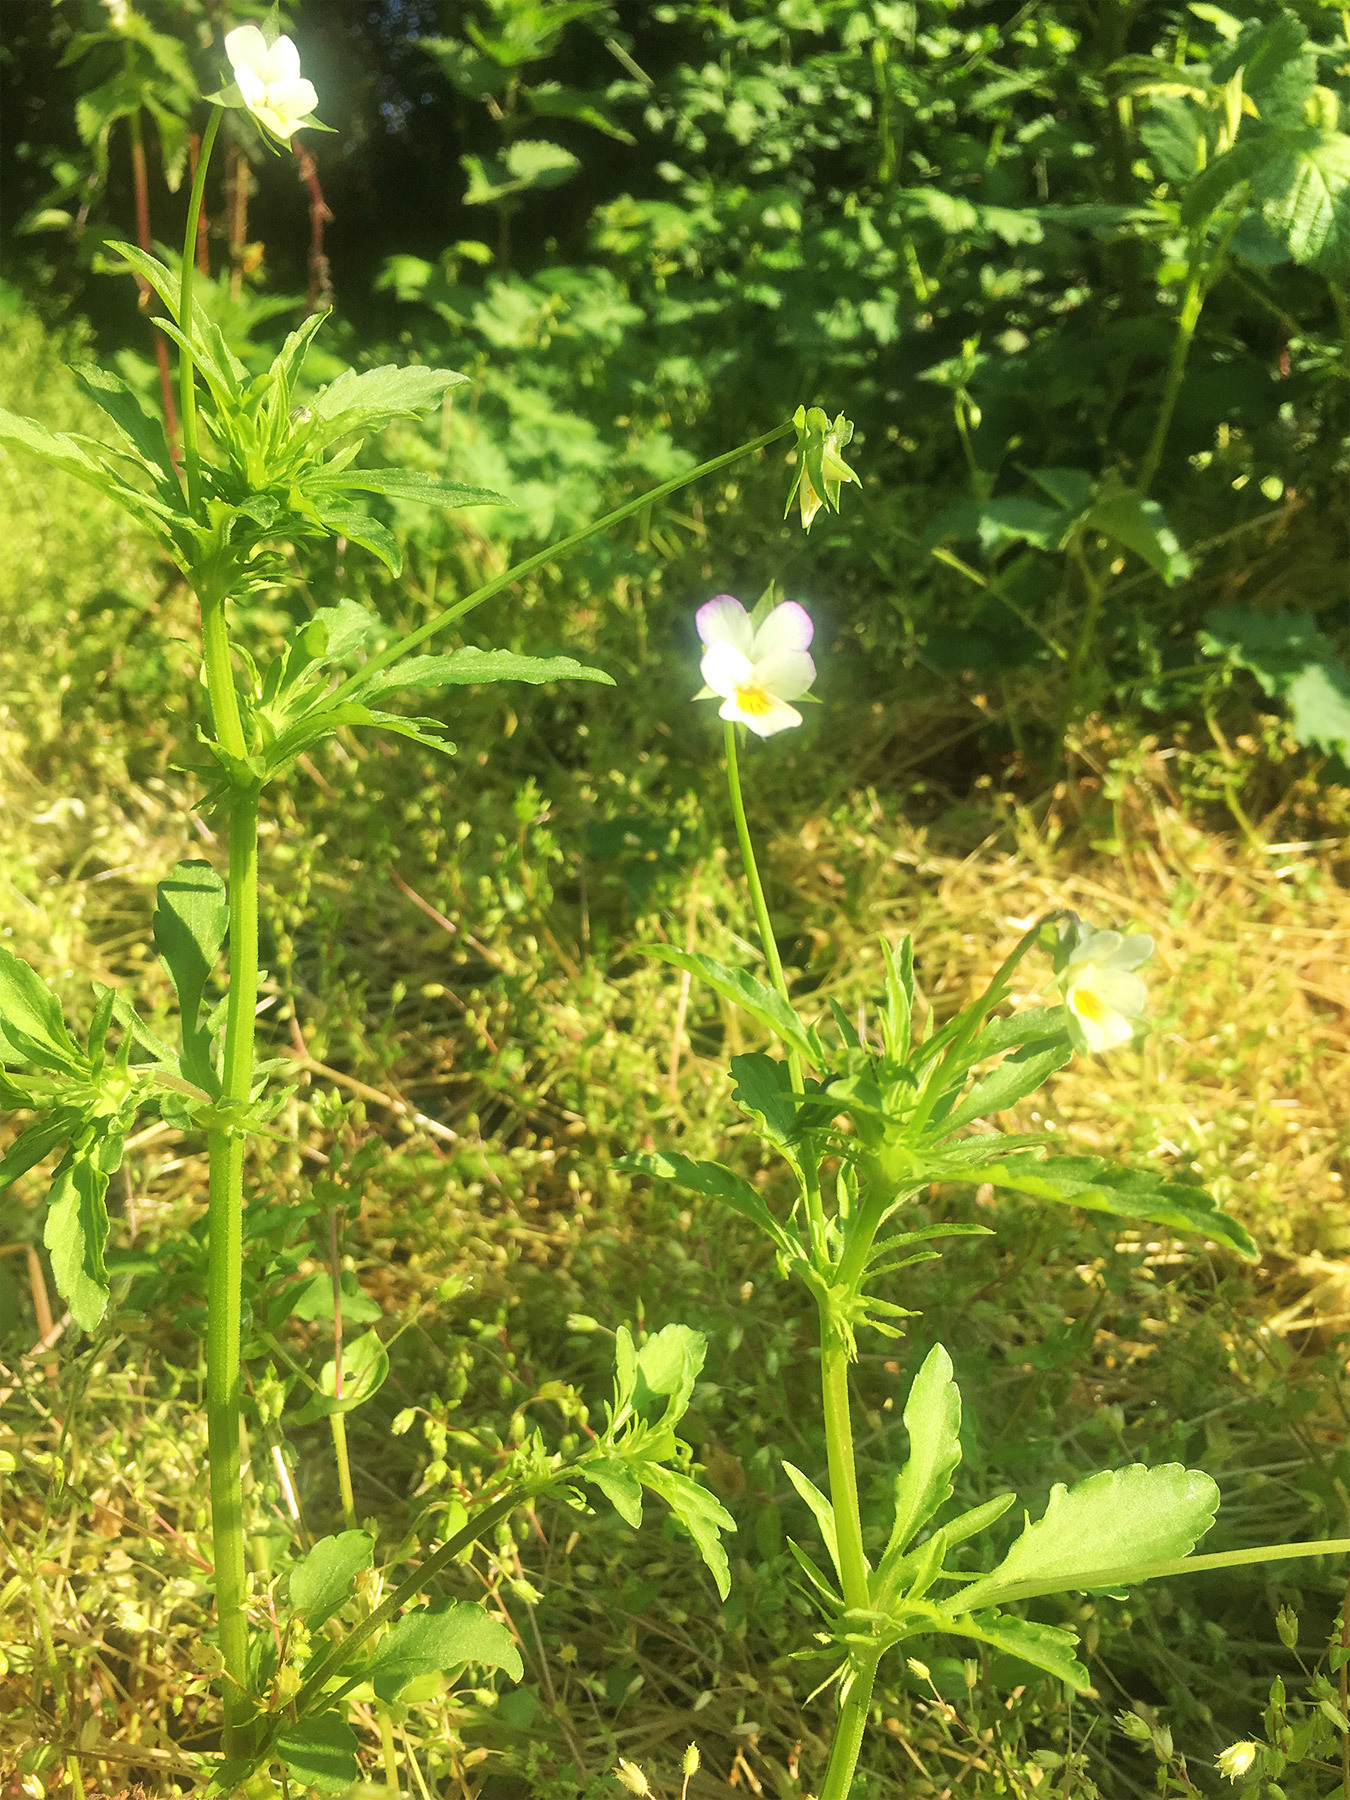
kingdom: Plantae
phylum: Tracheophyta
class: Magnoliopsida
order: Malpighiales
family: Violaceae
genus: Viola
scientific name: Viola arvensis
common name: Field pansy
